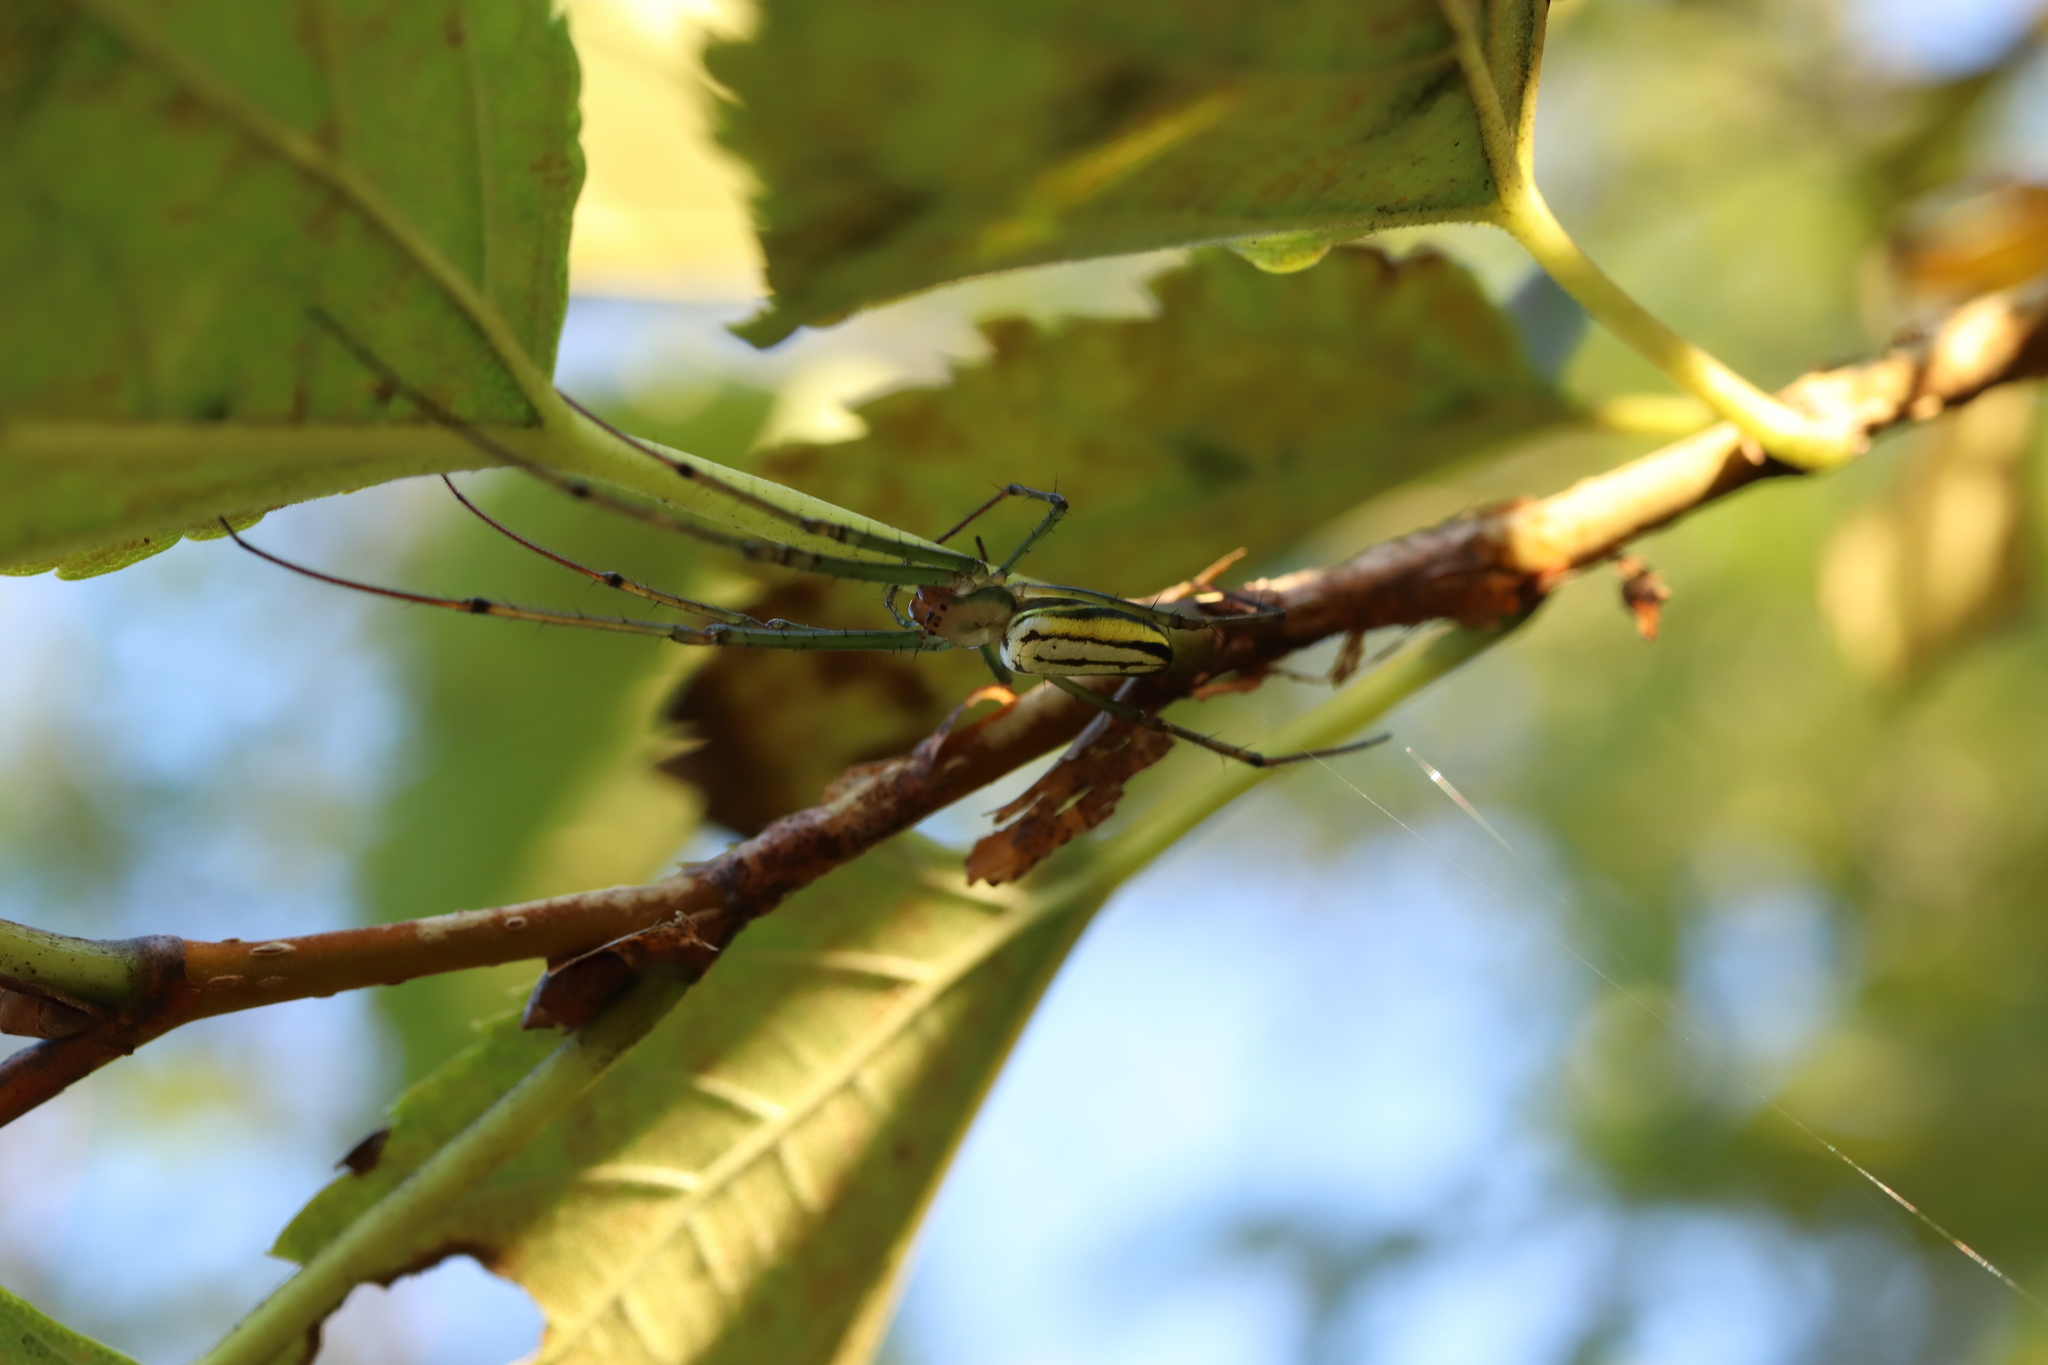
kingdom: Animalia
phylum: Arthropoda
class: Arachnida
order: Araneae
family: Tetragnathidae
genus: Leucauge
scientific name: Leucauge celebesiana
